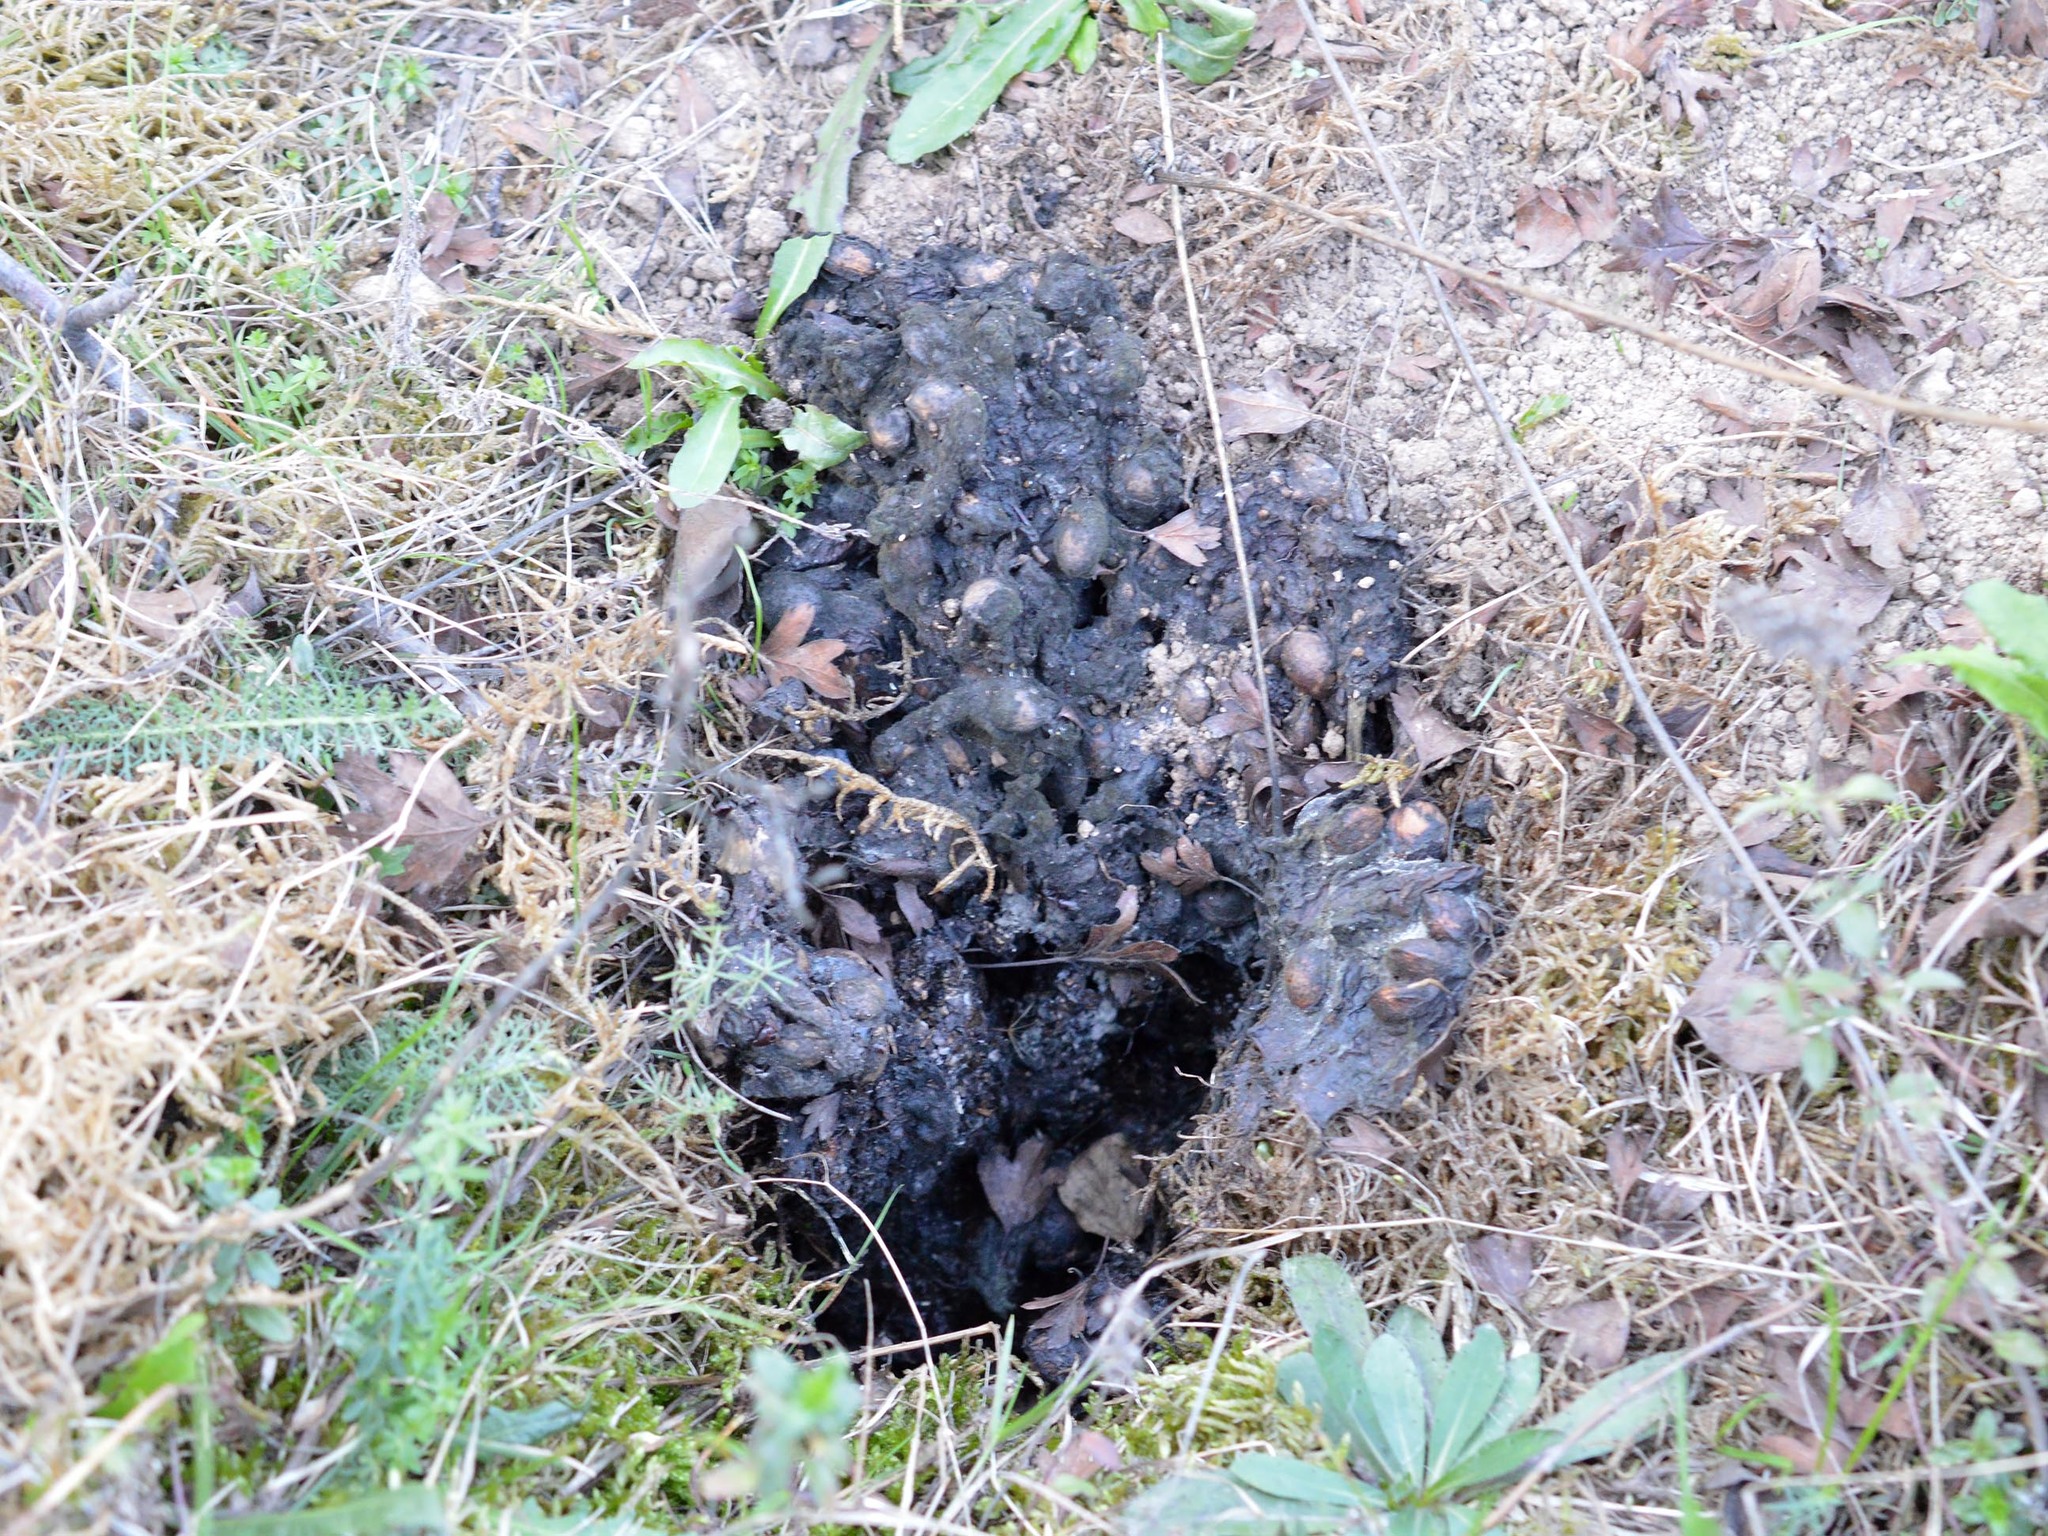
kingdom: Animalia
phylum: Chordata
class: Mammalia
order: Carnivora
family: Mustelidae
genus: Meles
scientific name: Meles meles
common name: Eurasian badger
